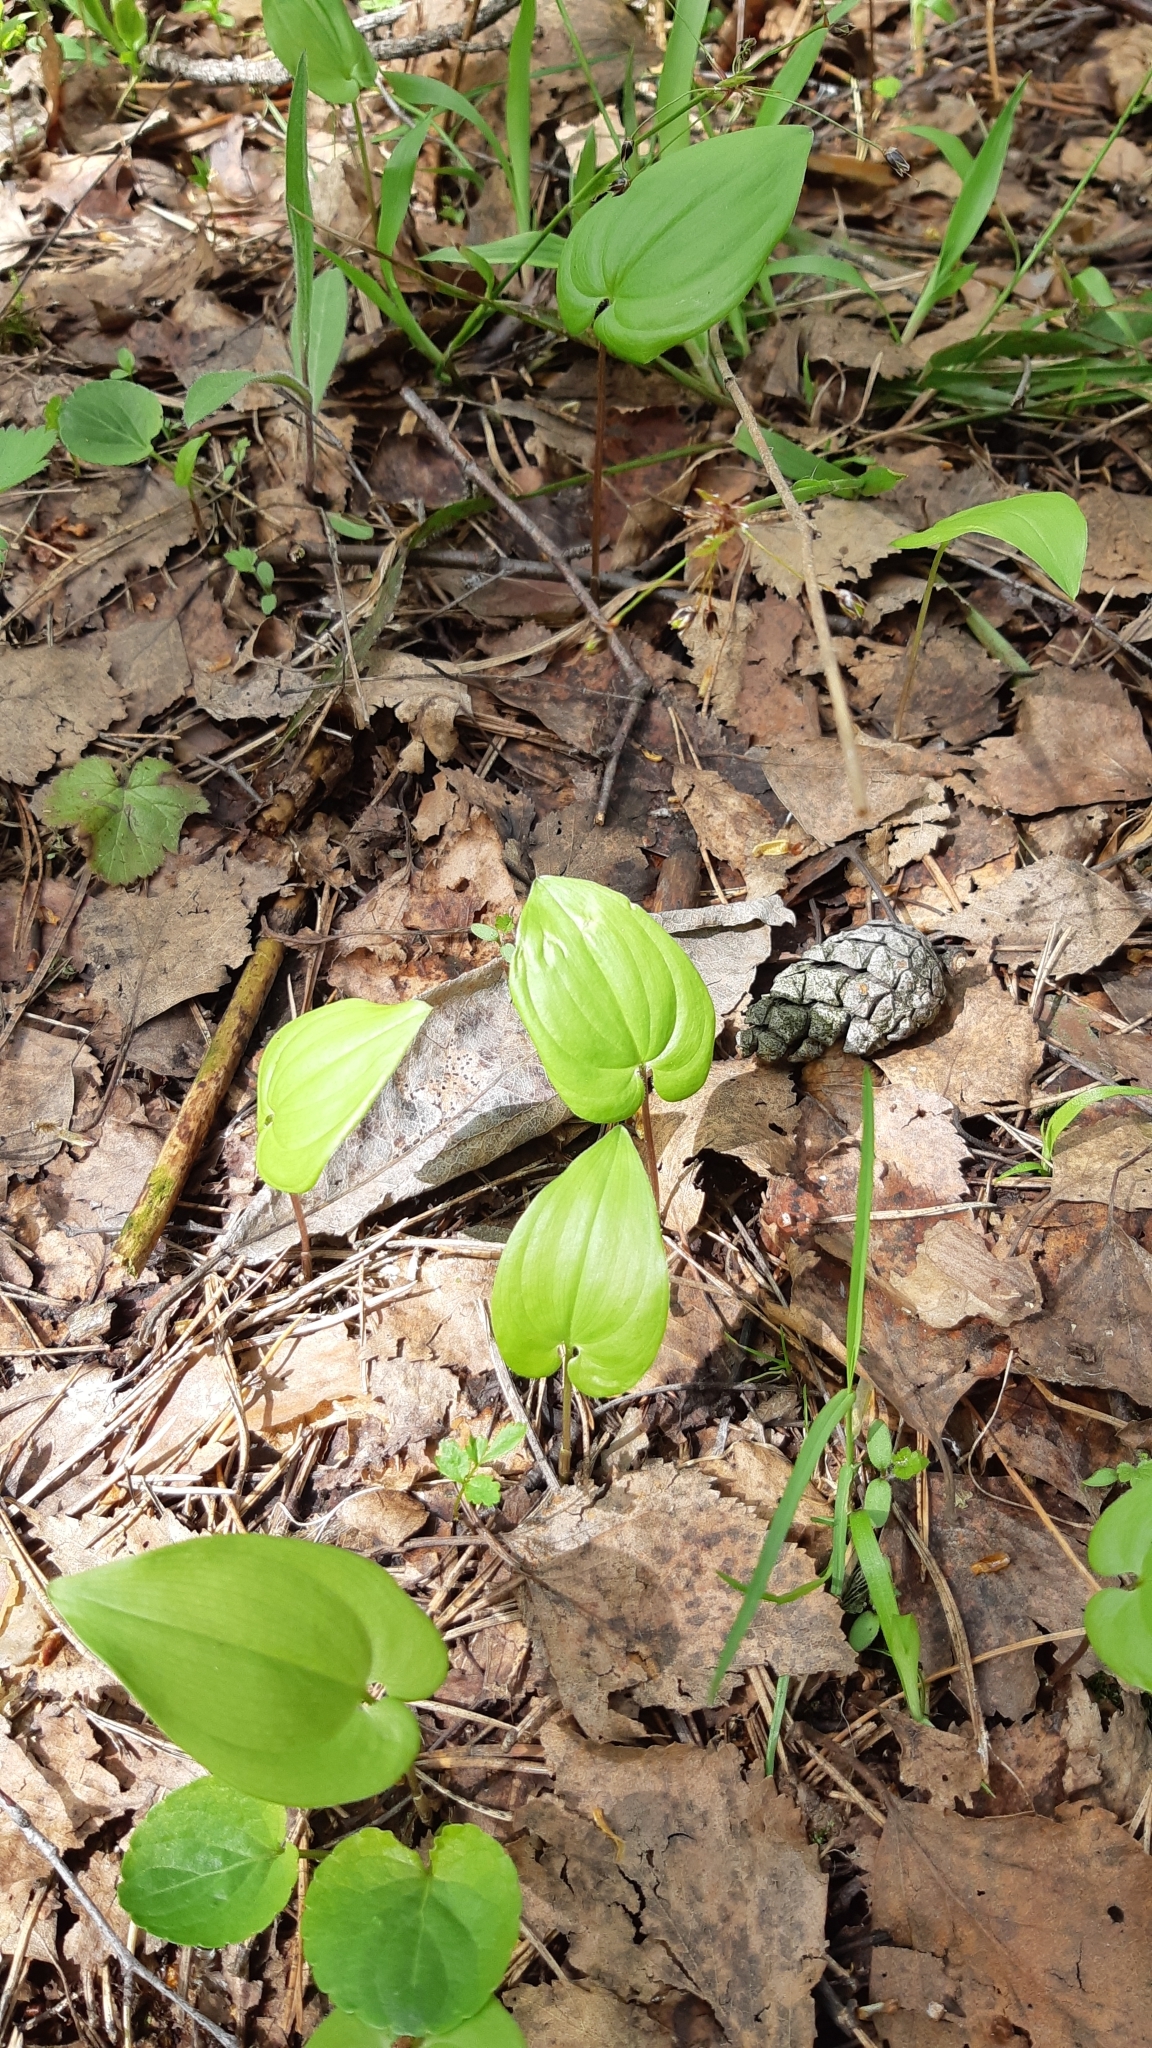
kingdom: Plantae
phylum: Tracheophyta
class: Liliopsida
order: Asparagales
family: Asparagaceae
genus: Maianthemum
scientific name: Maianthemum bifolium
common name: May lily
